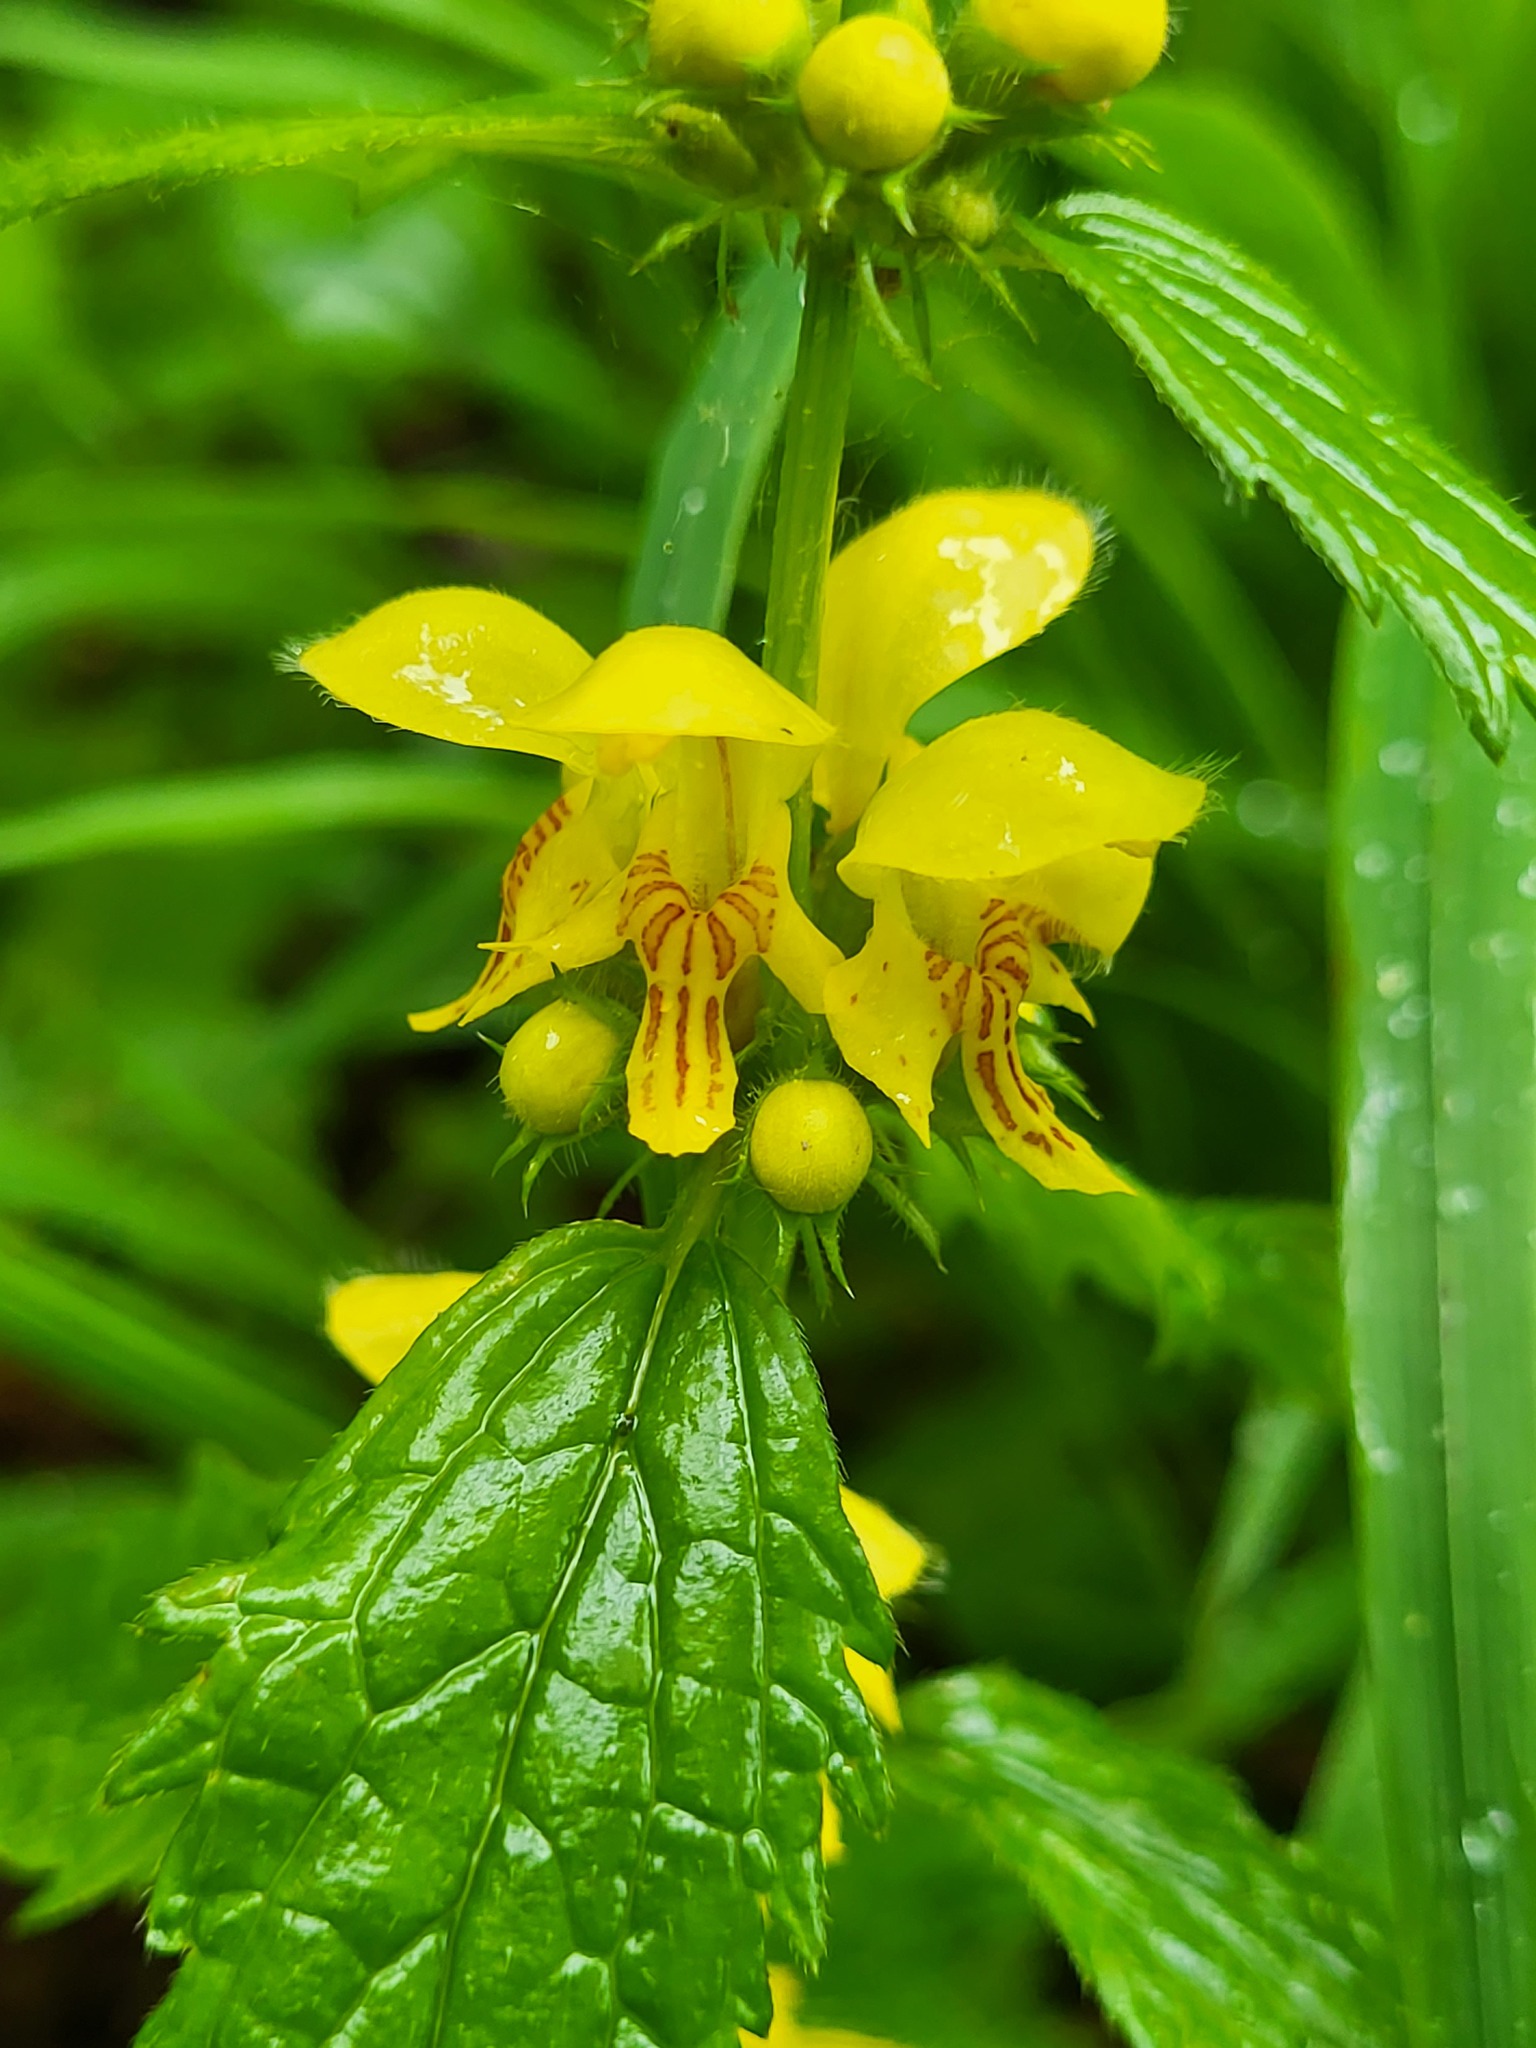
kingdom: Plantae
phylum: Tracheophyta
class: Magnoliopsida
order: Lamiales
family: Lamiaceae
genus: Lamium
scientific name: Lamium galeobdolon
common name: Yellow archangel
